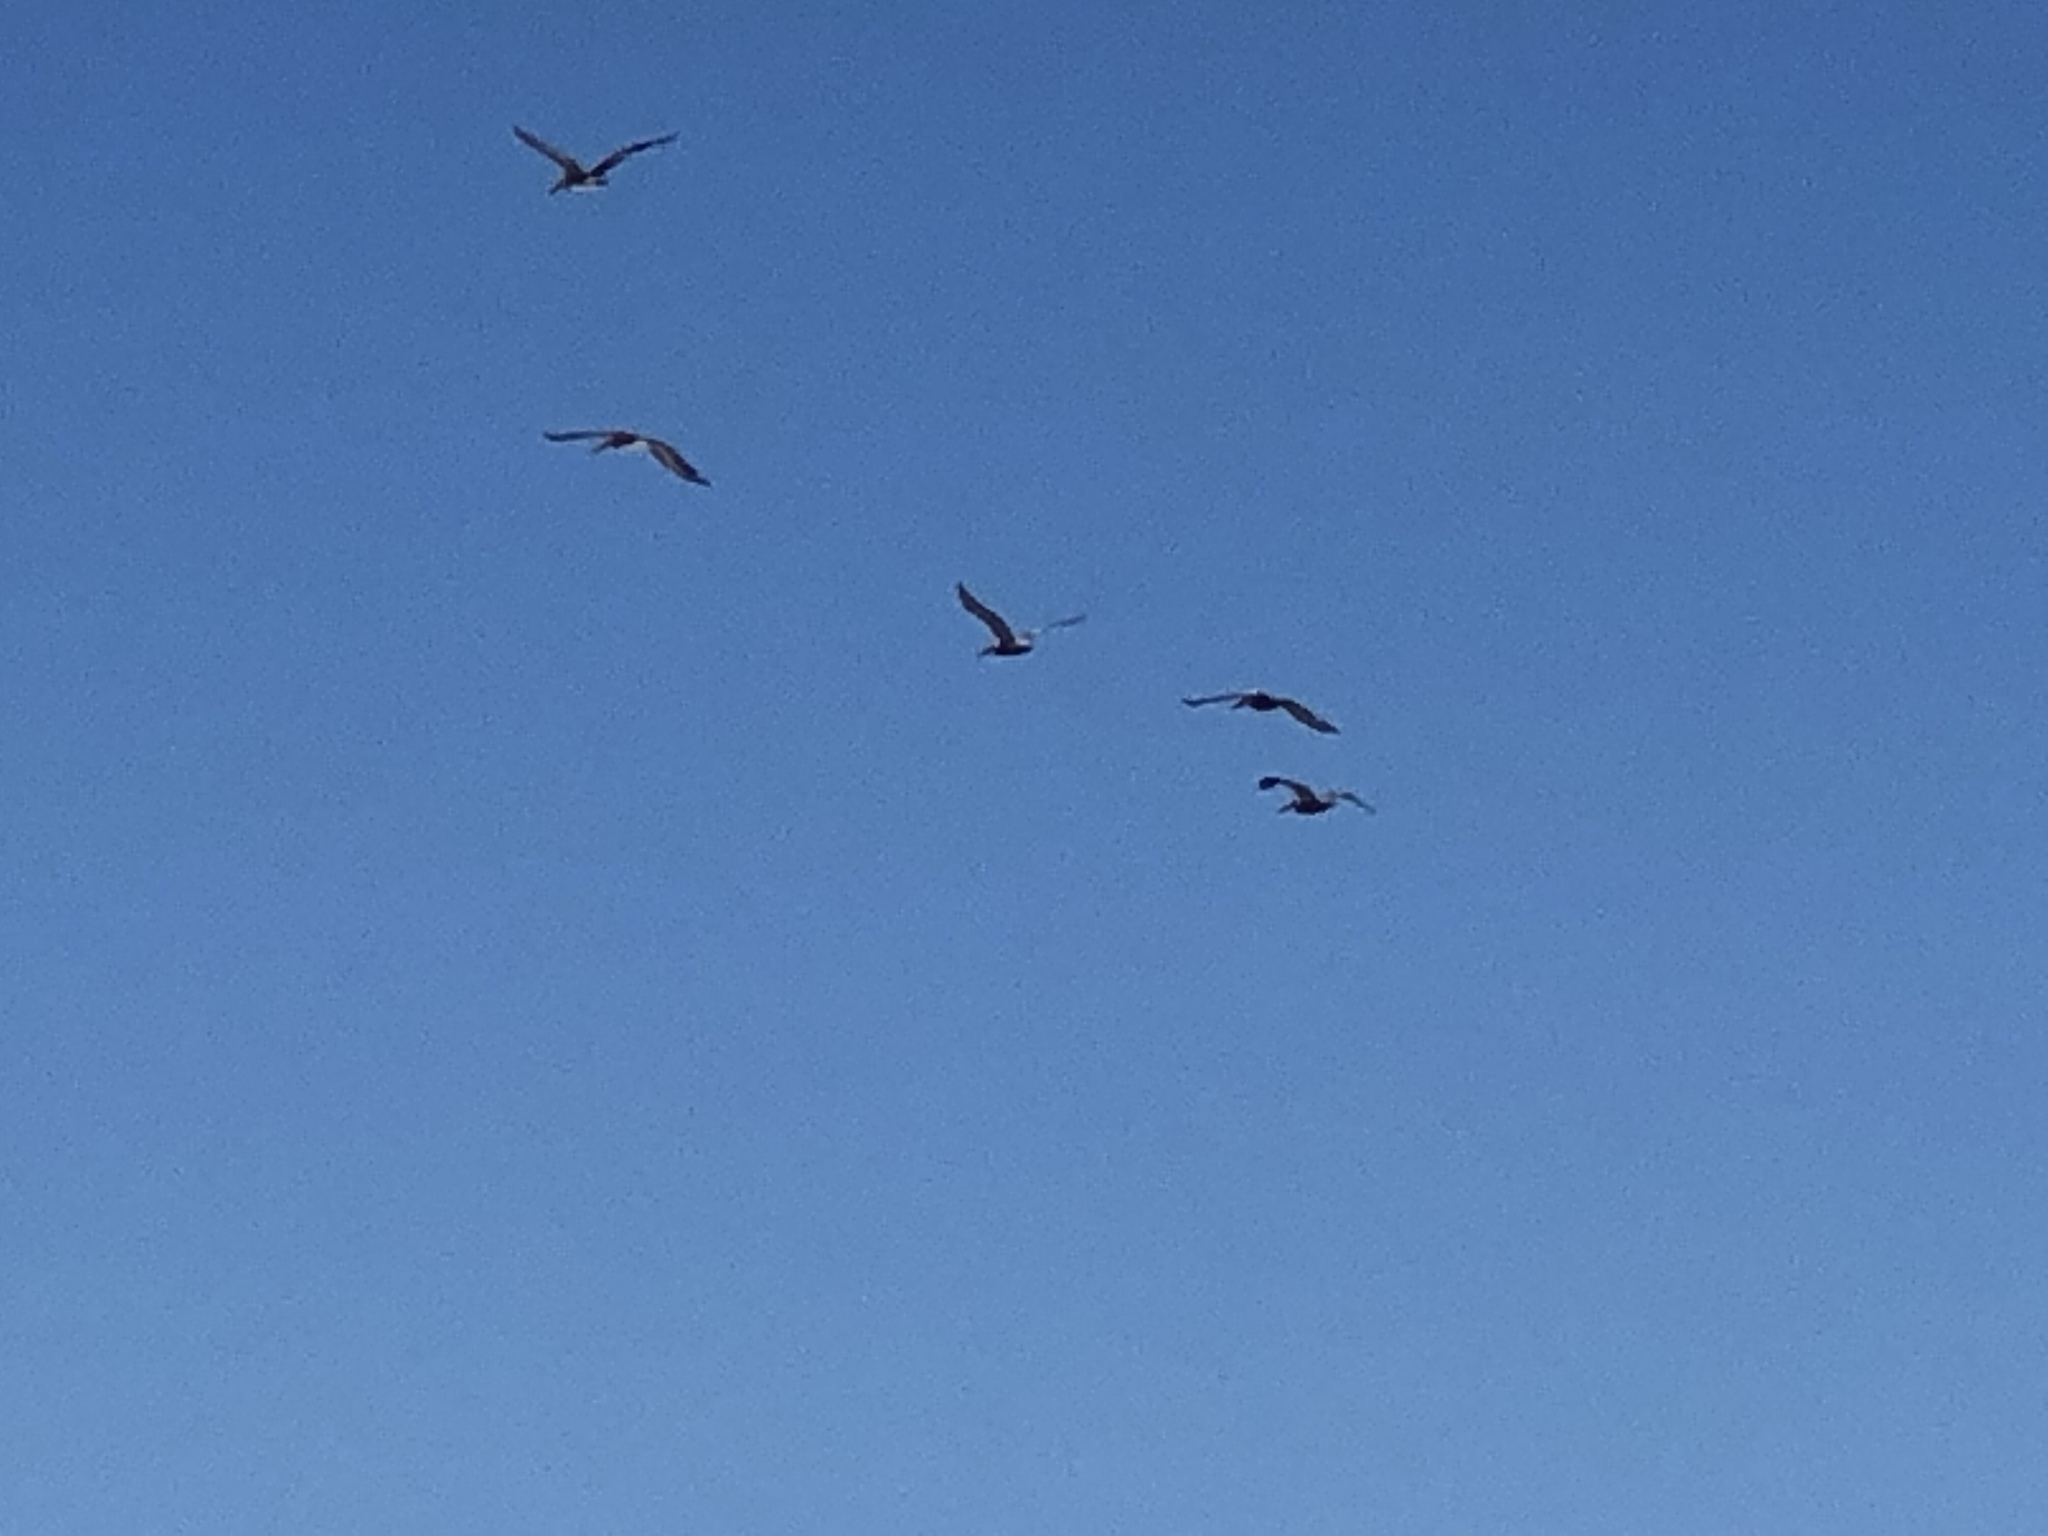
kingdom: Animalia
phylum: Chordata
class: Aves
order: Pelecaniformes
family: Pelecanidae
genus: Pelecanus
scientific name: Pelecanus occidentalis
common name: Brown pelican
